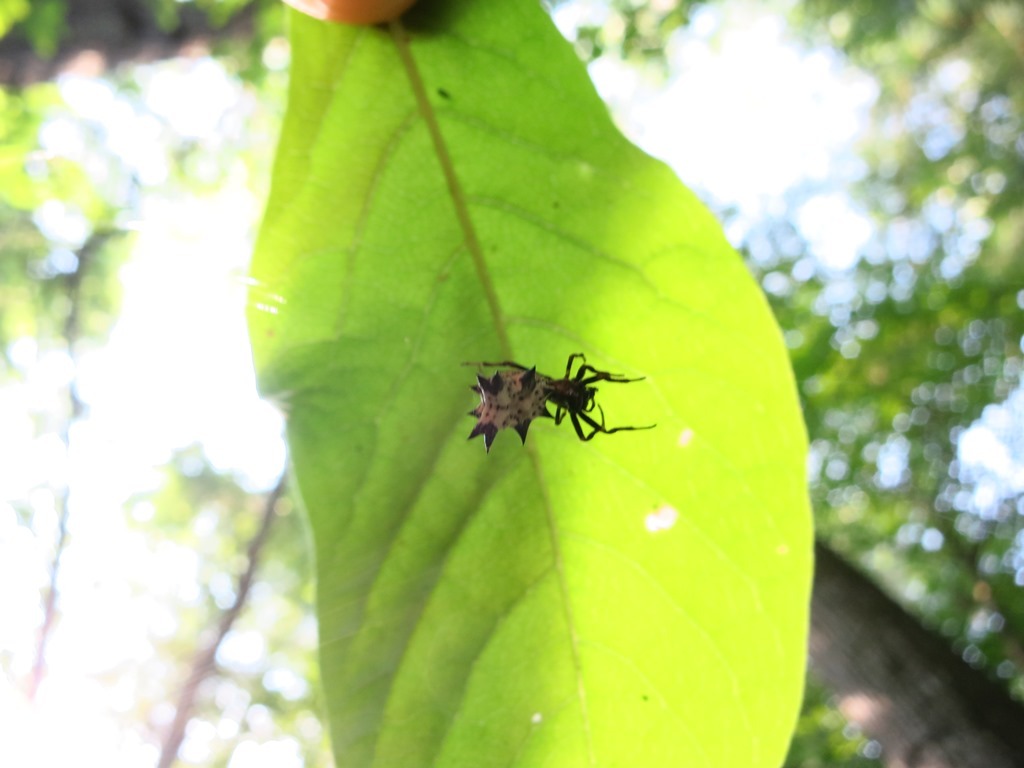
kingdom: Animalia
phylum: Arthropoda
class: Arachnida
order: Araneae
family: Araneidae
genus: Micrathena
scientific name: Micrathena gracilis
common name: Orb weavers
